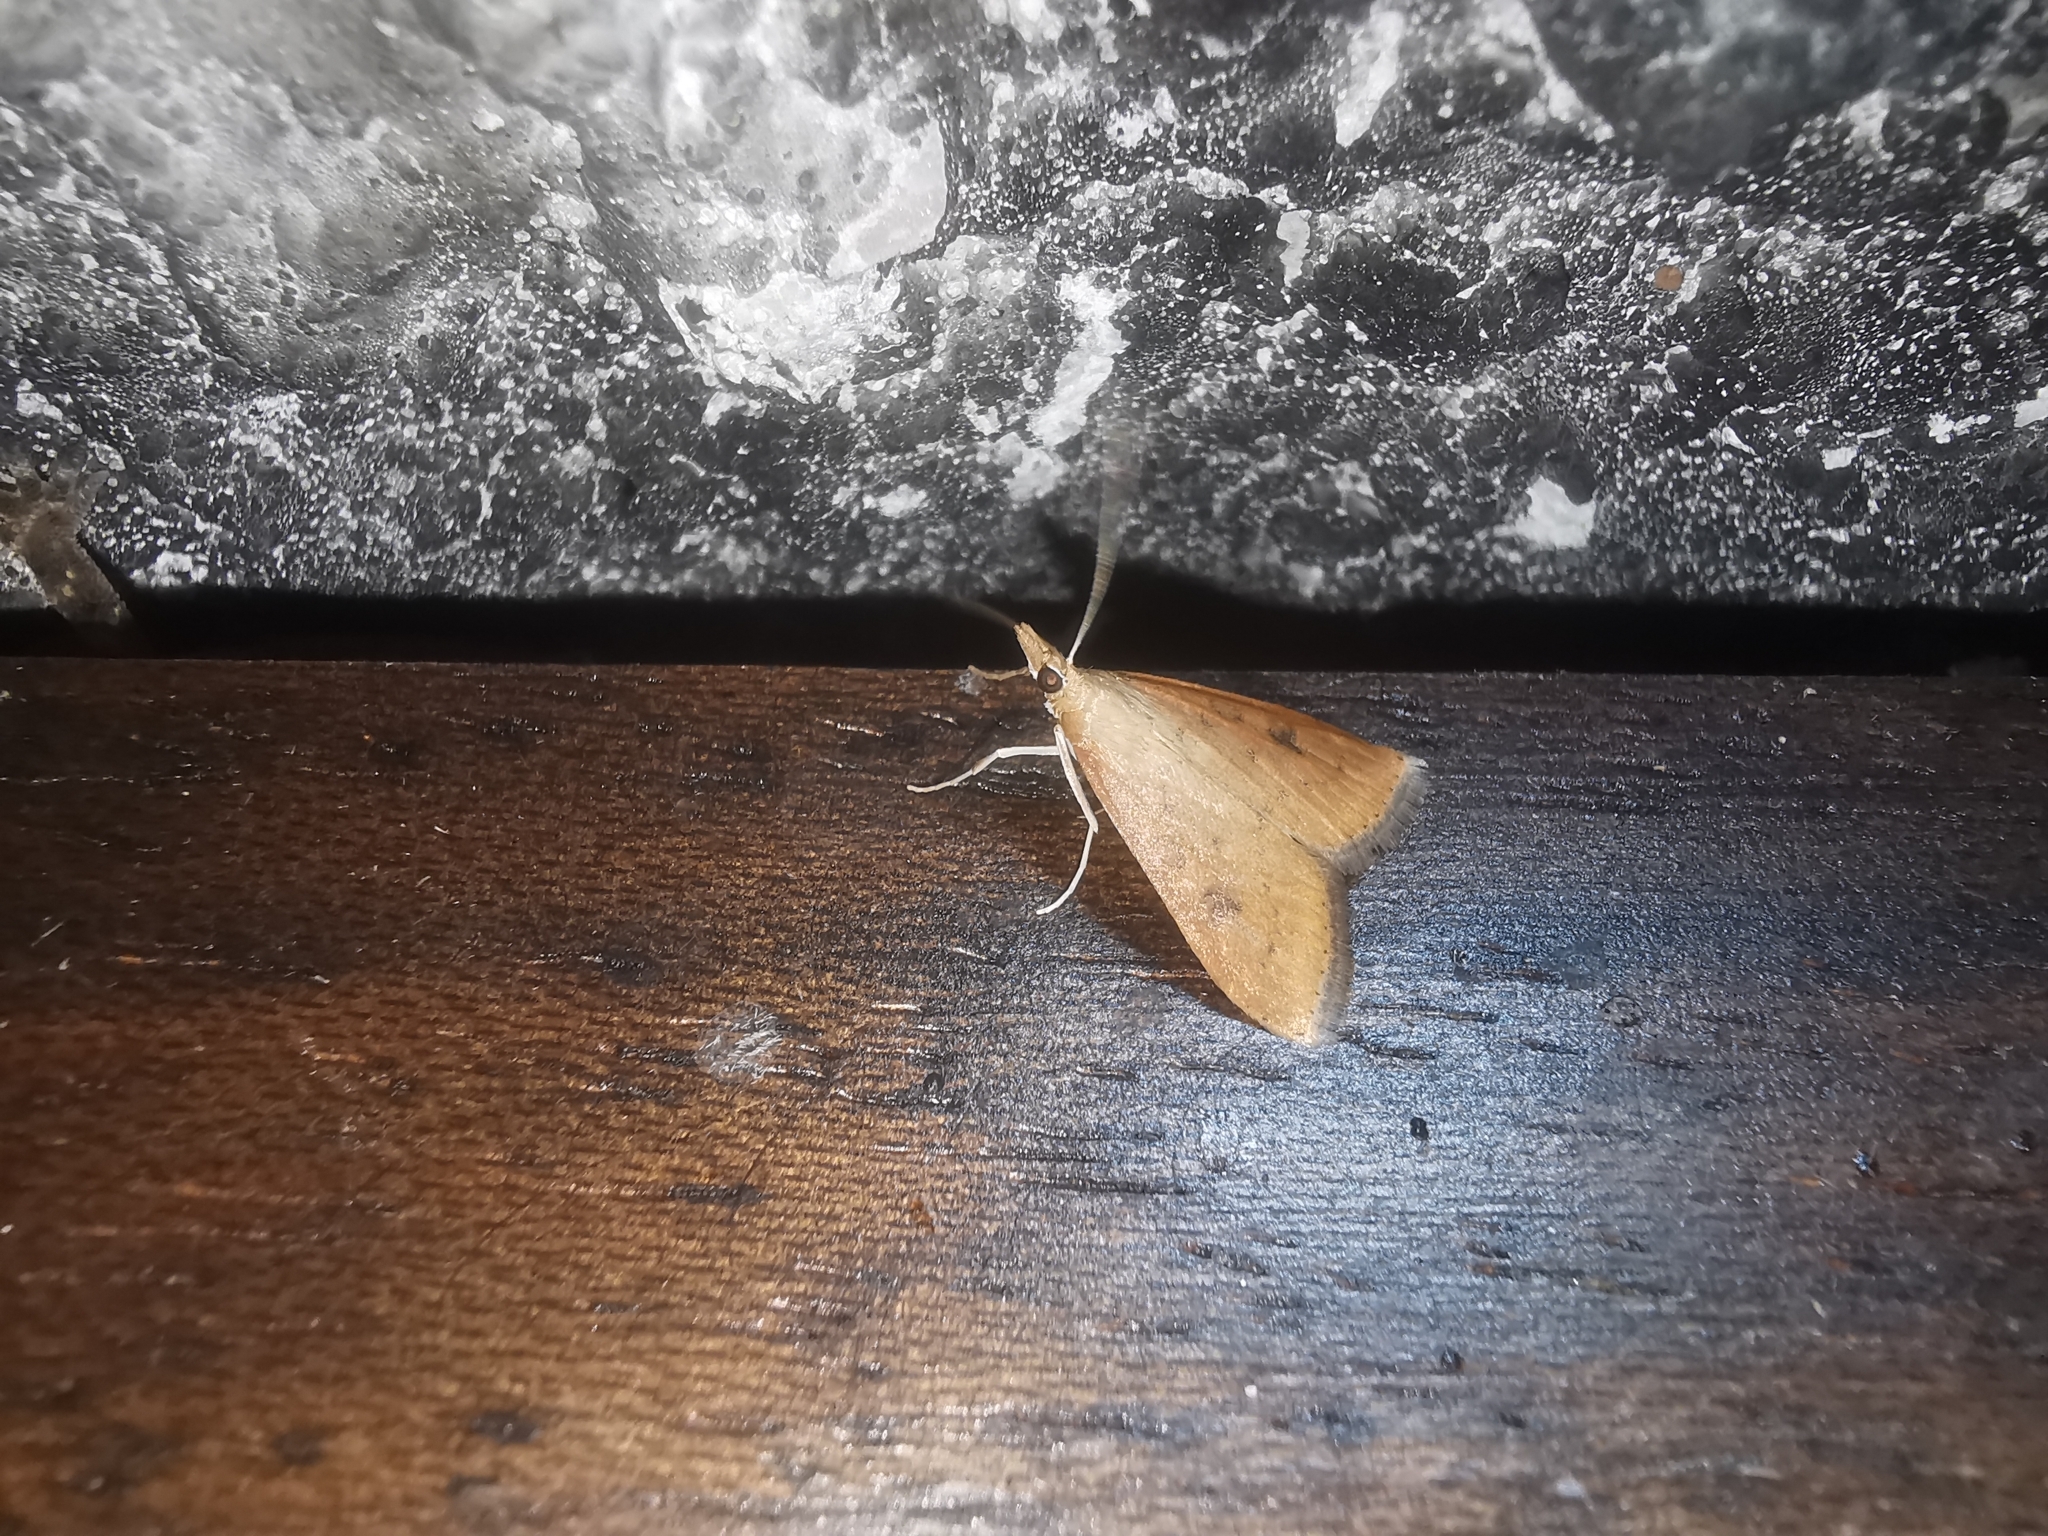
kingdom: Animalia
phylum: Arthropoda
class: Insecta
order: Lepidoptera
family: Crambidae
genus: Udea
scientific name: Udea ferrugalis
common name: Rusty dot
